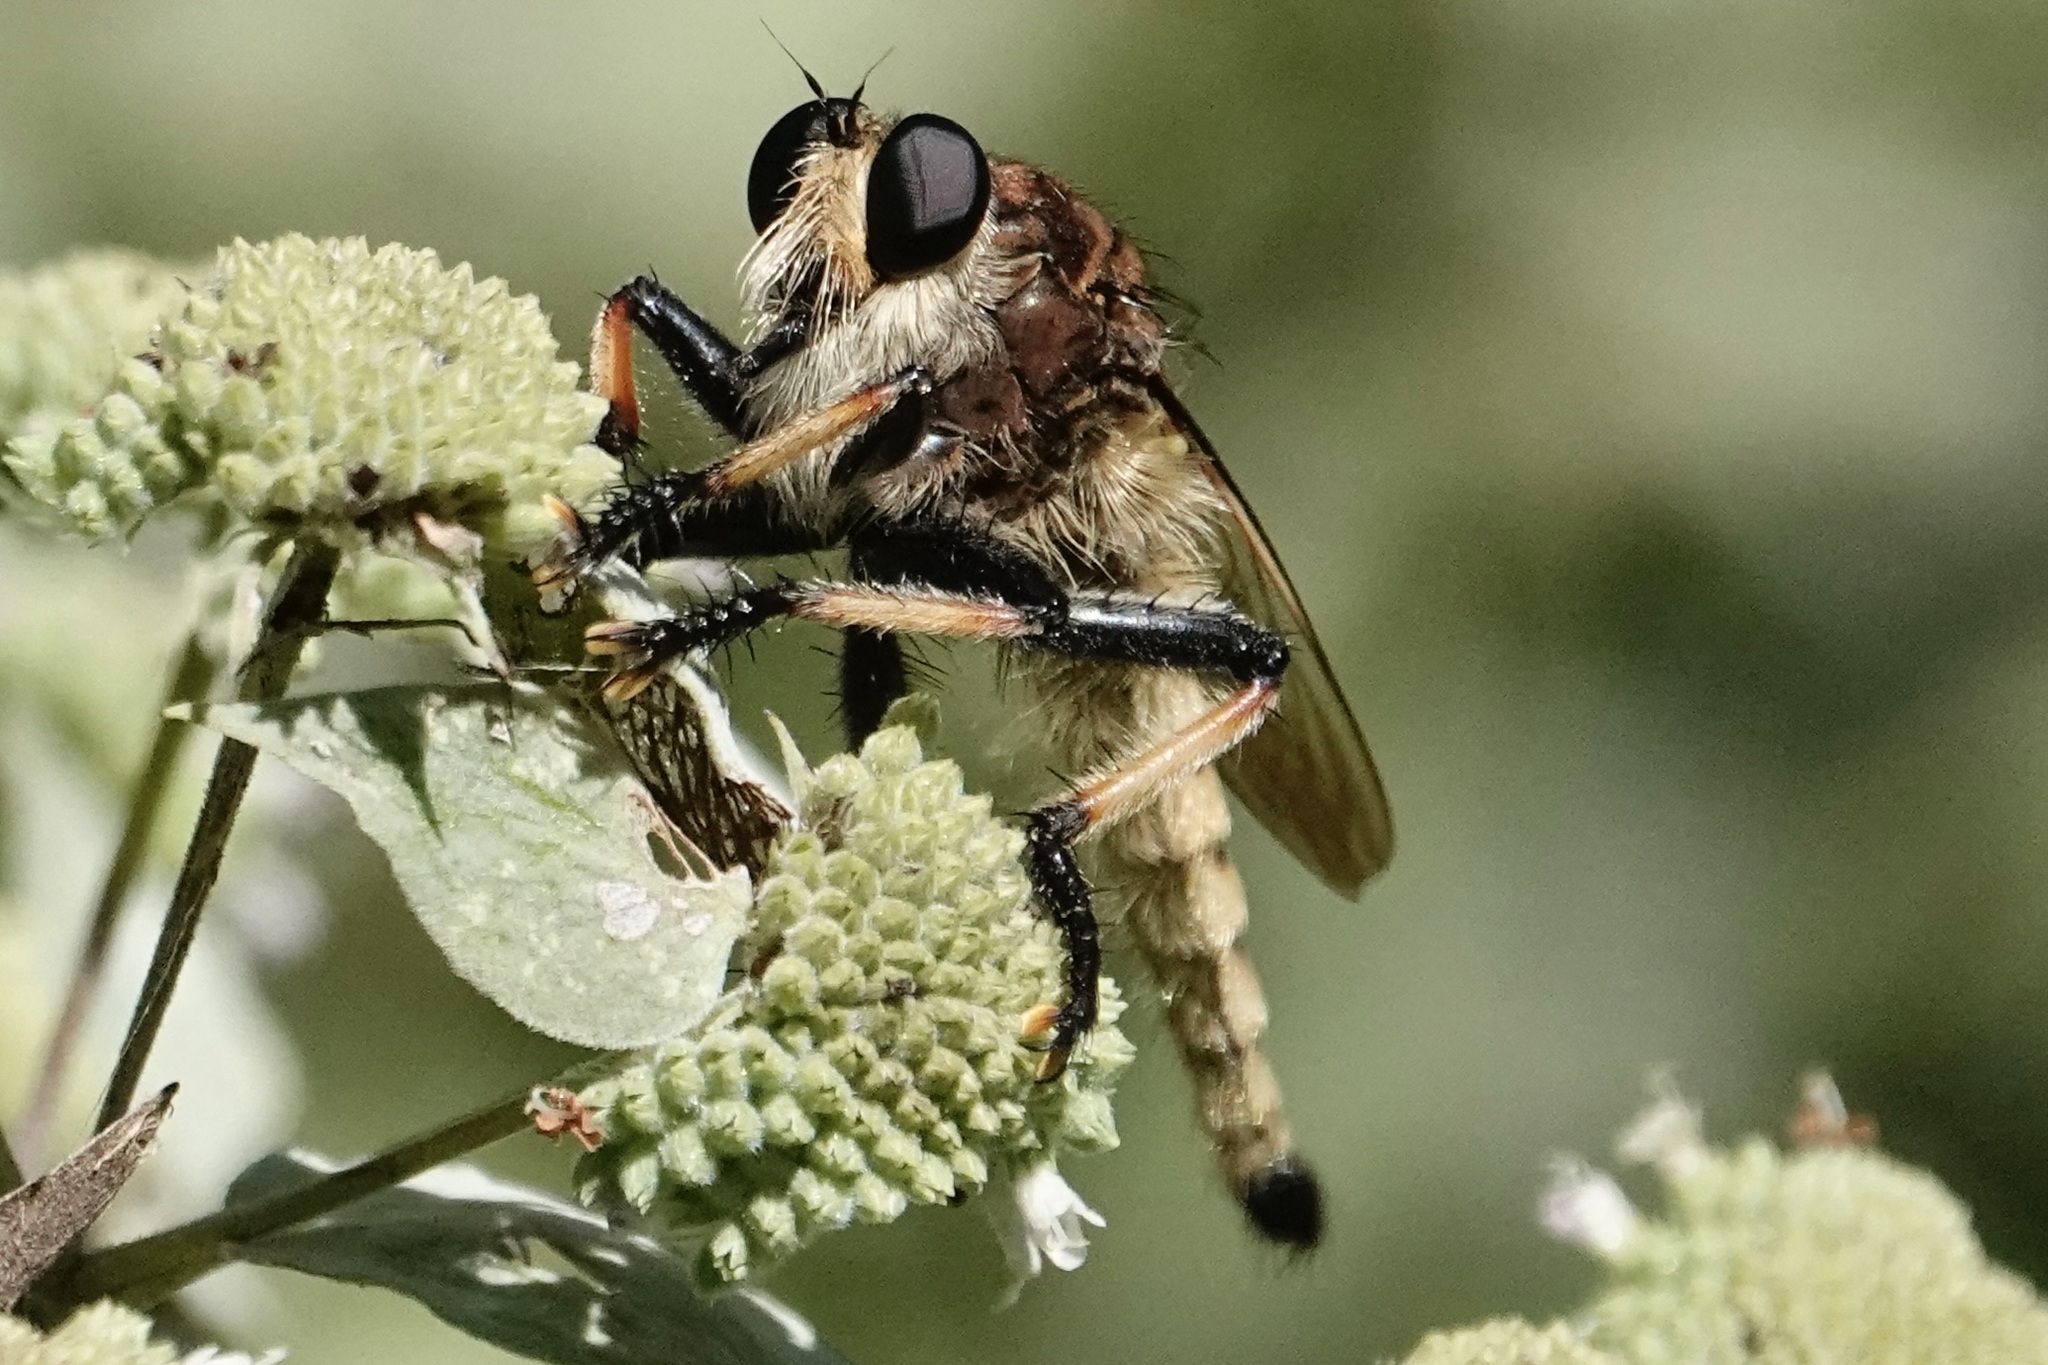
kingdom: Animalia
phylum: Arthropoda
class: Insecta
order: Diptera
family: Asilidae
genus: Promachus
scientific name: Promachus rufipes
